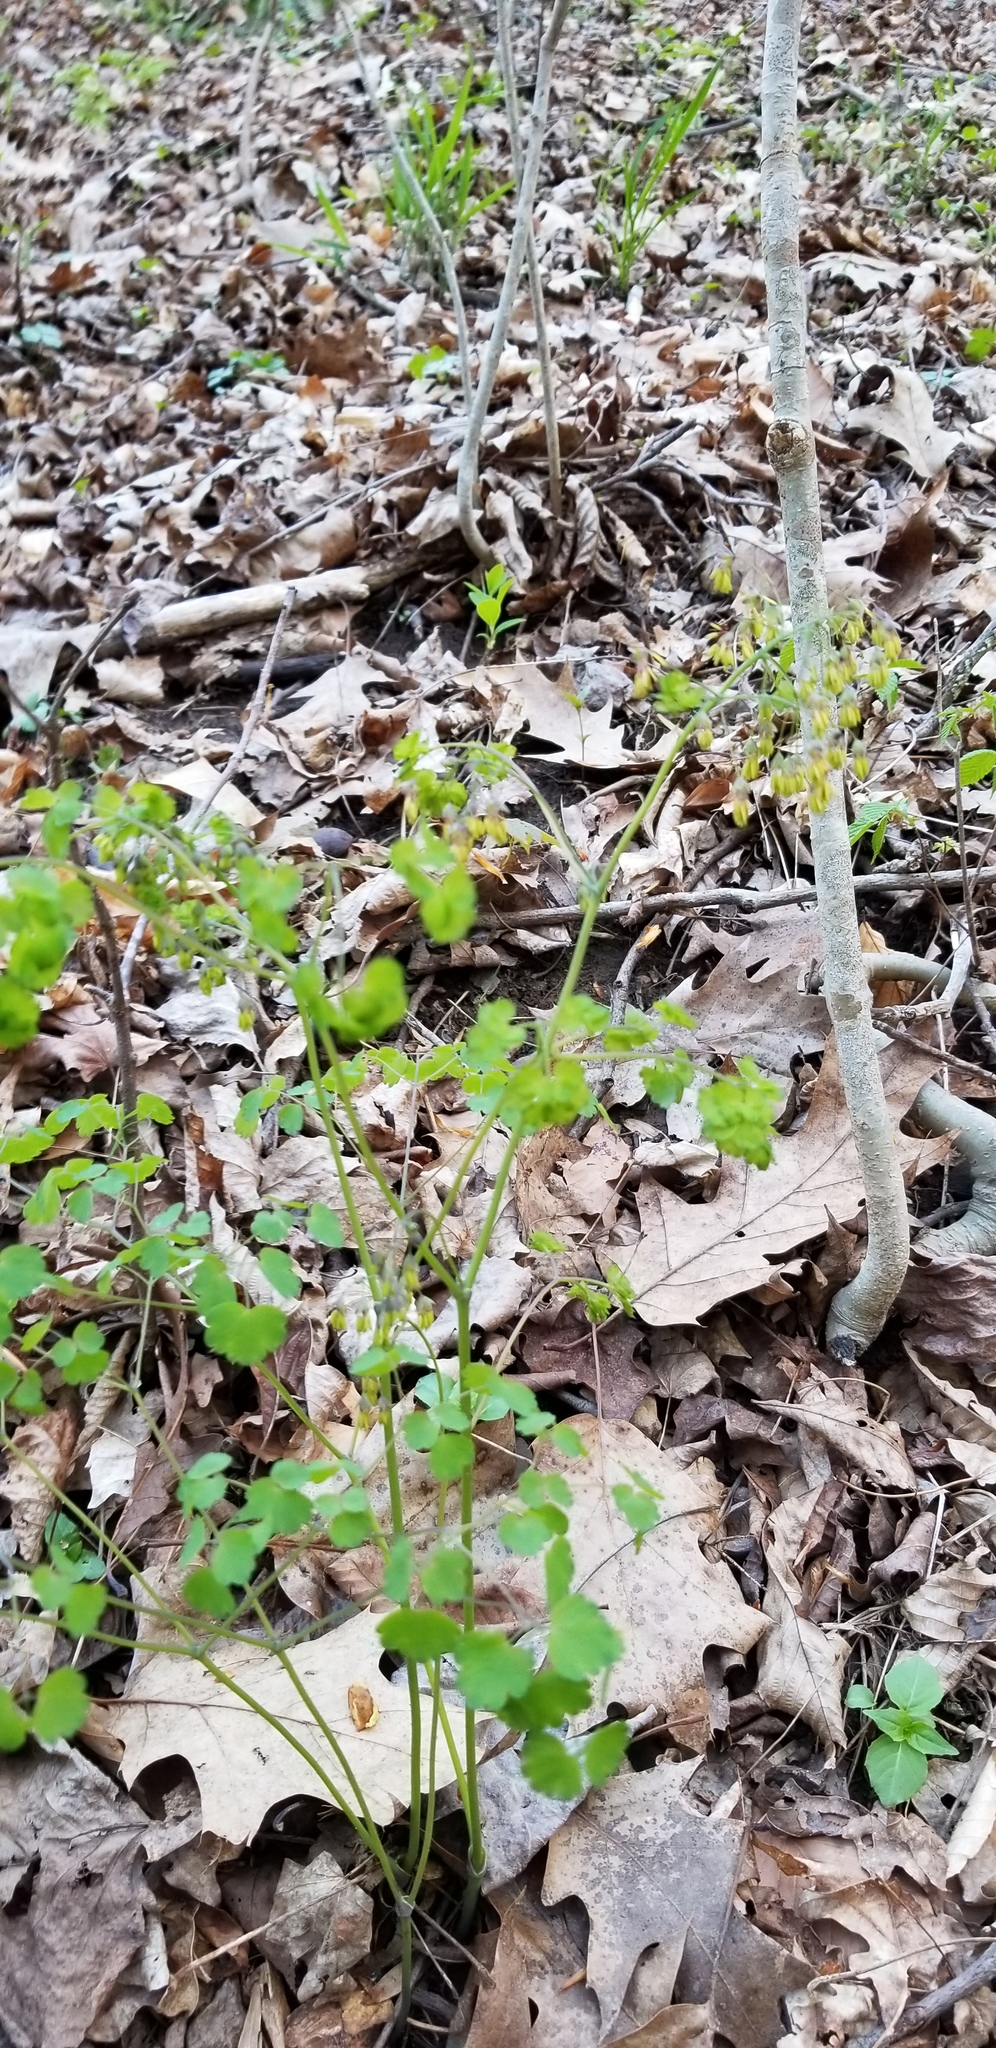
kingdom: Plantae
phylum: Tracheophyta
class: Magnoliopsida
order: Ranunculales
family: Ranunculaceae
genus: Thalictrum
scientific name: Thalictrum dioicum
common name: Early meadow-rue
